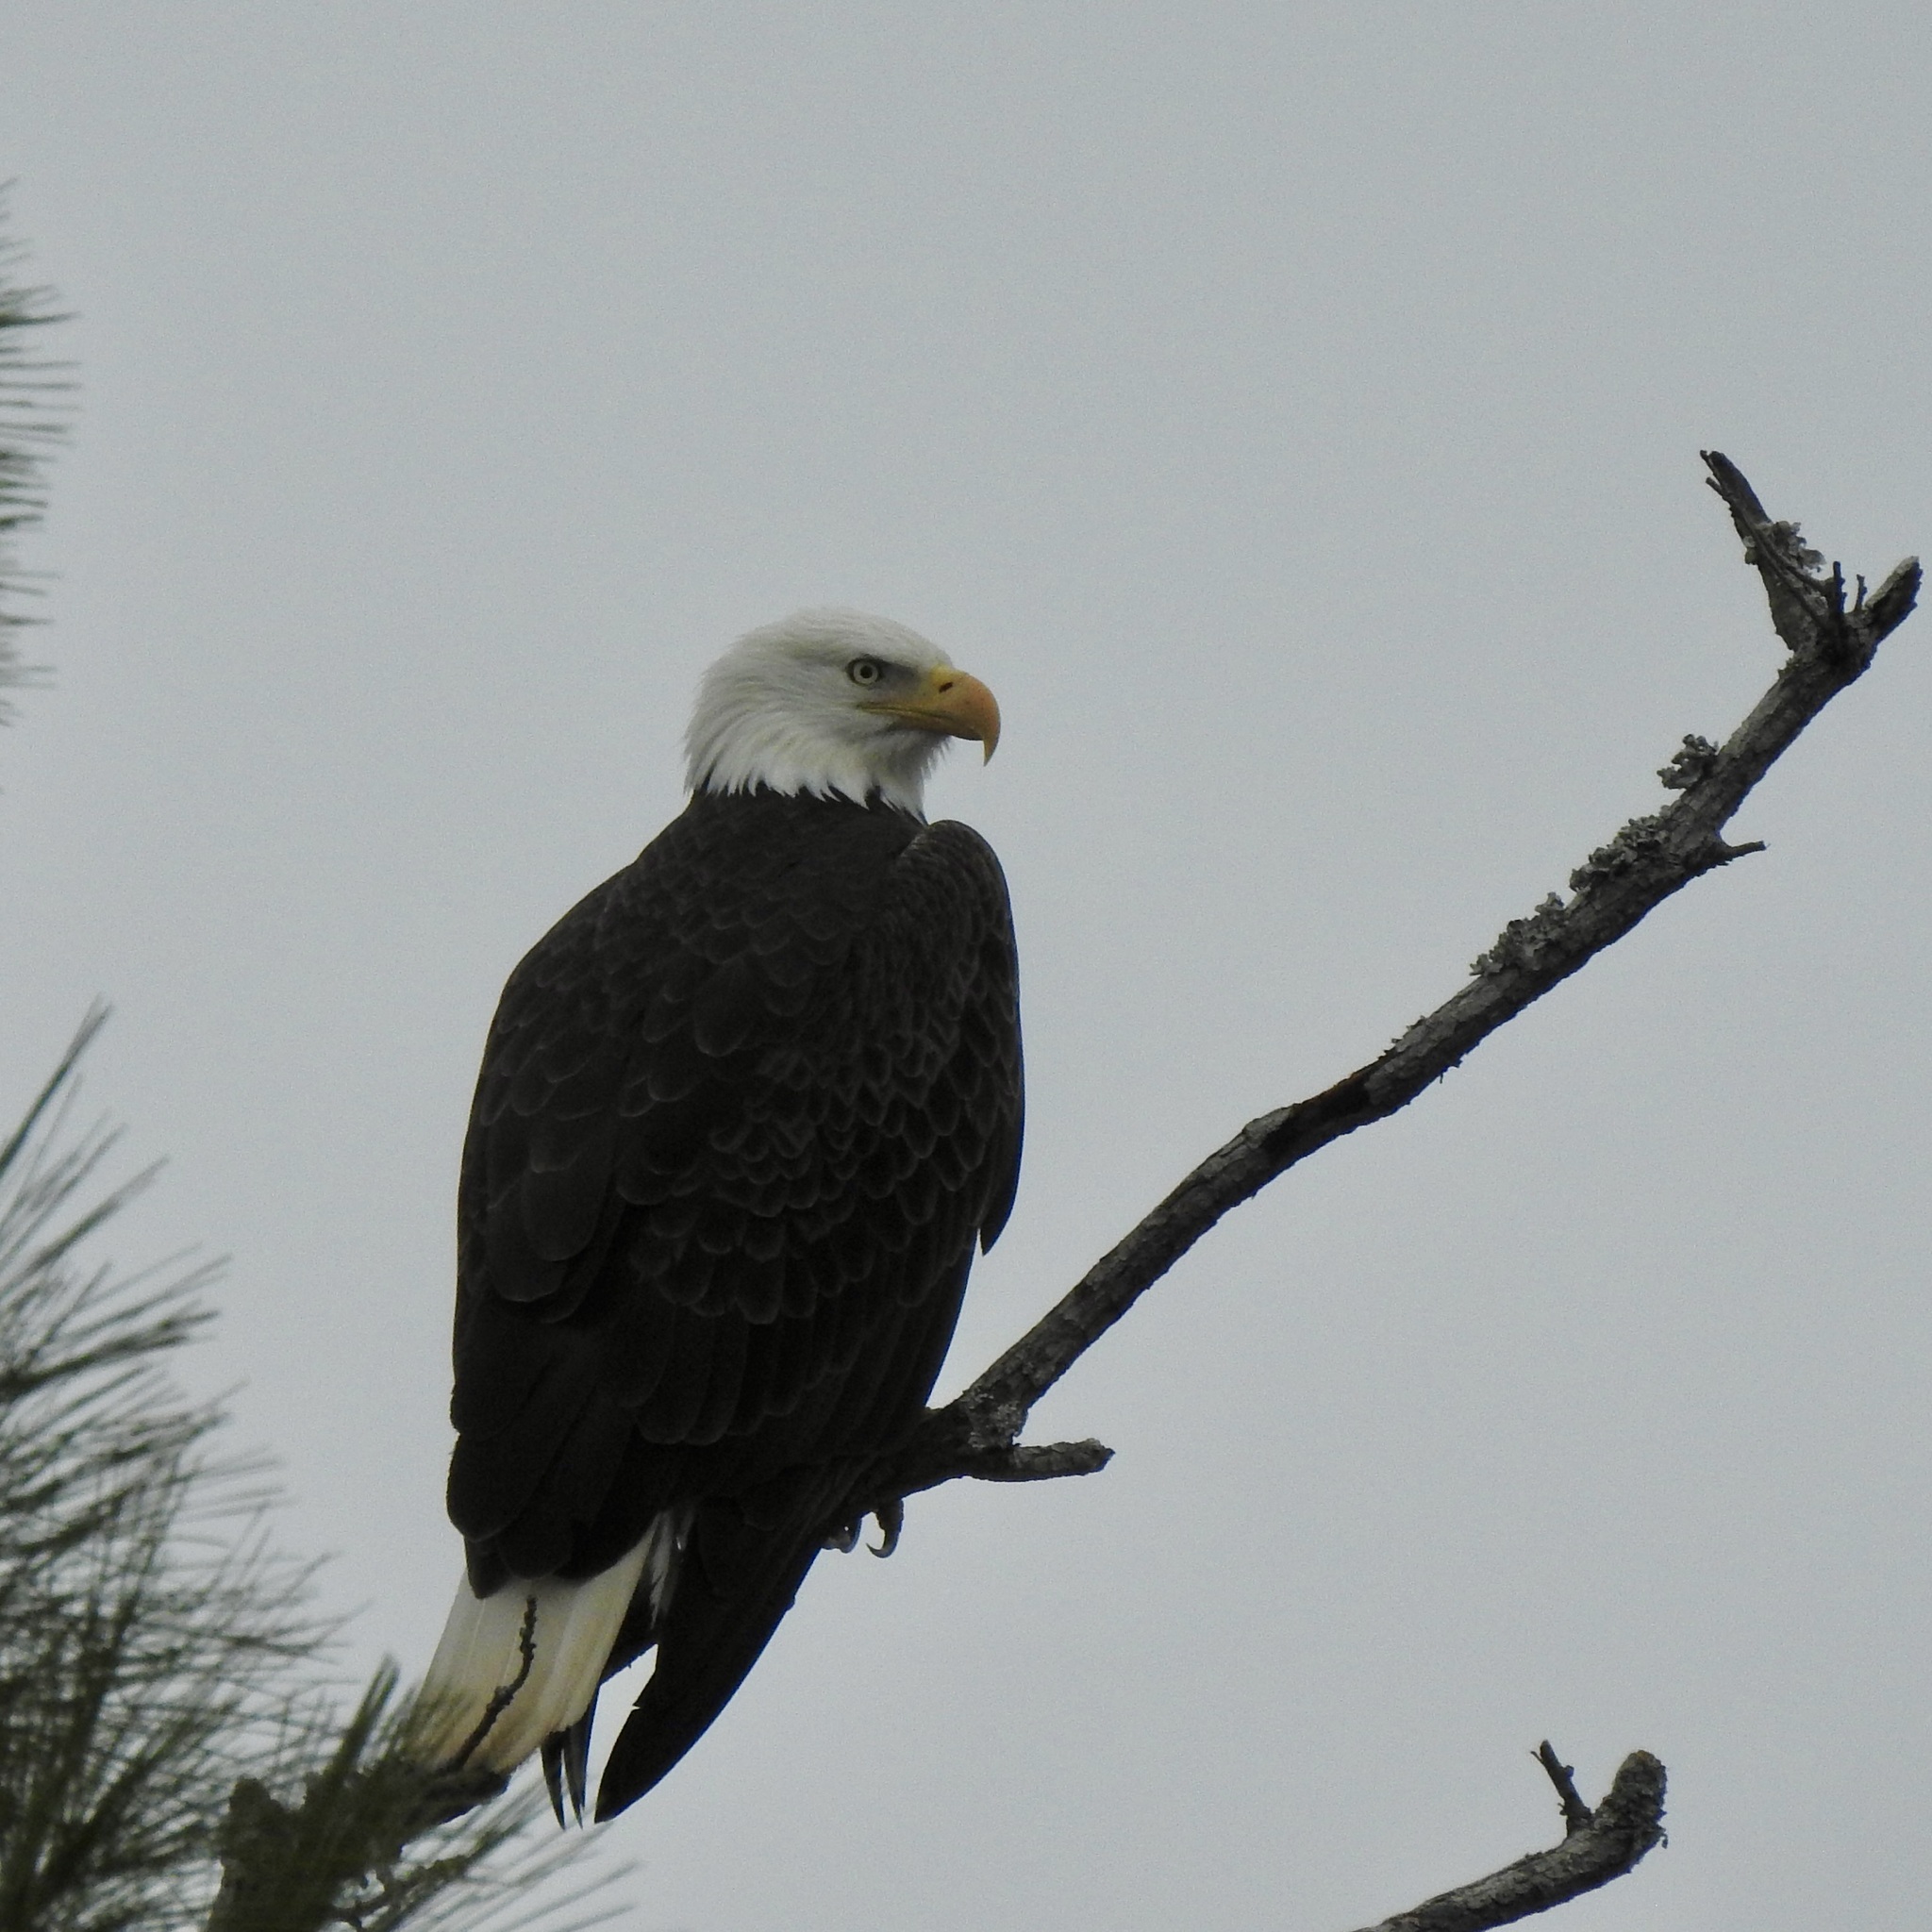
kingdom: Animalia
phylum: Chordata
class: Aves
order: Accipitriformes
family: Accipitridae
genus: Haliaeetus
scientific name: Haliaeetus leucocephalus
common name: Bald eagle
